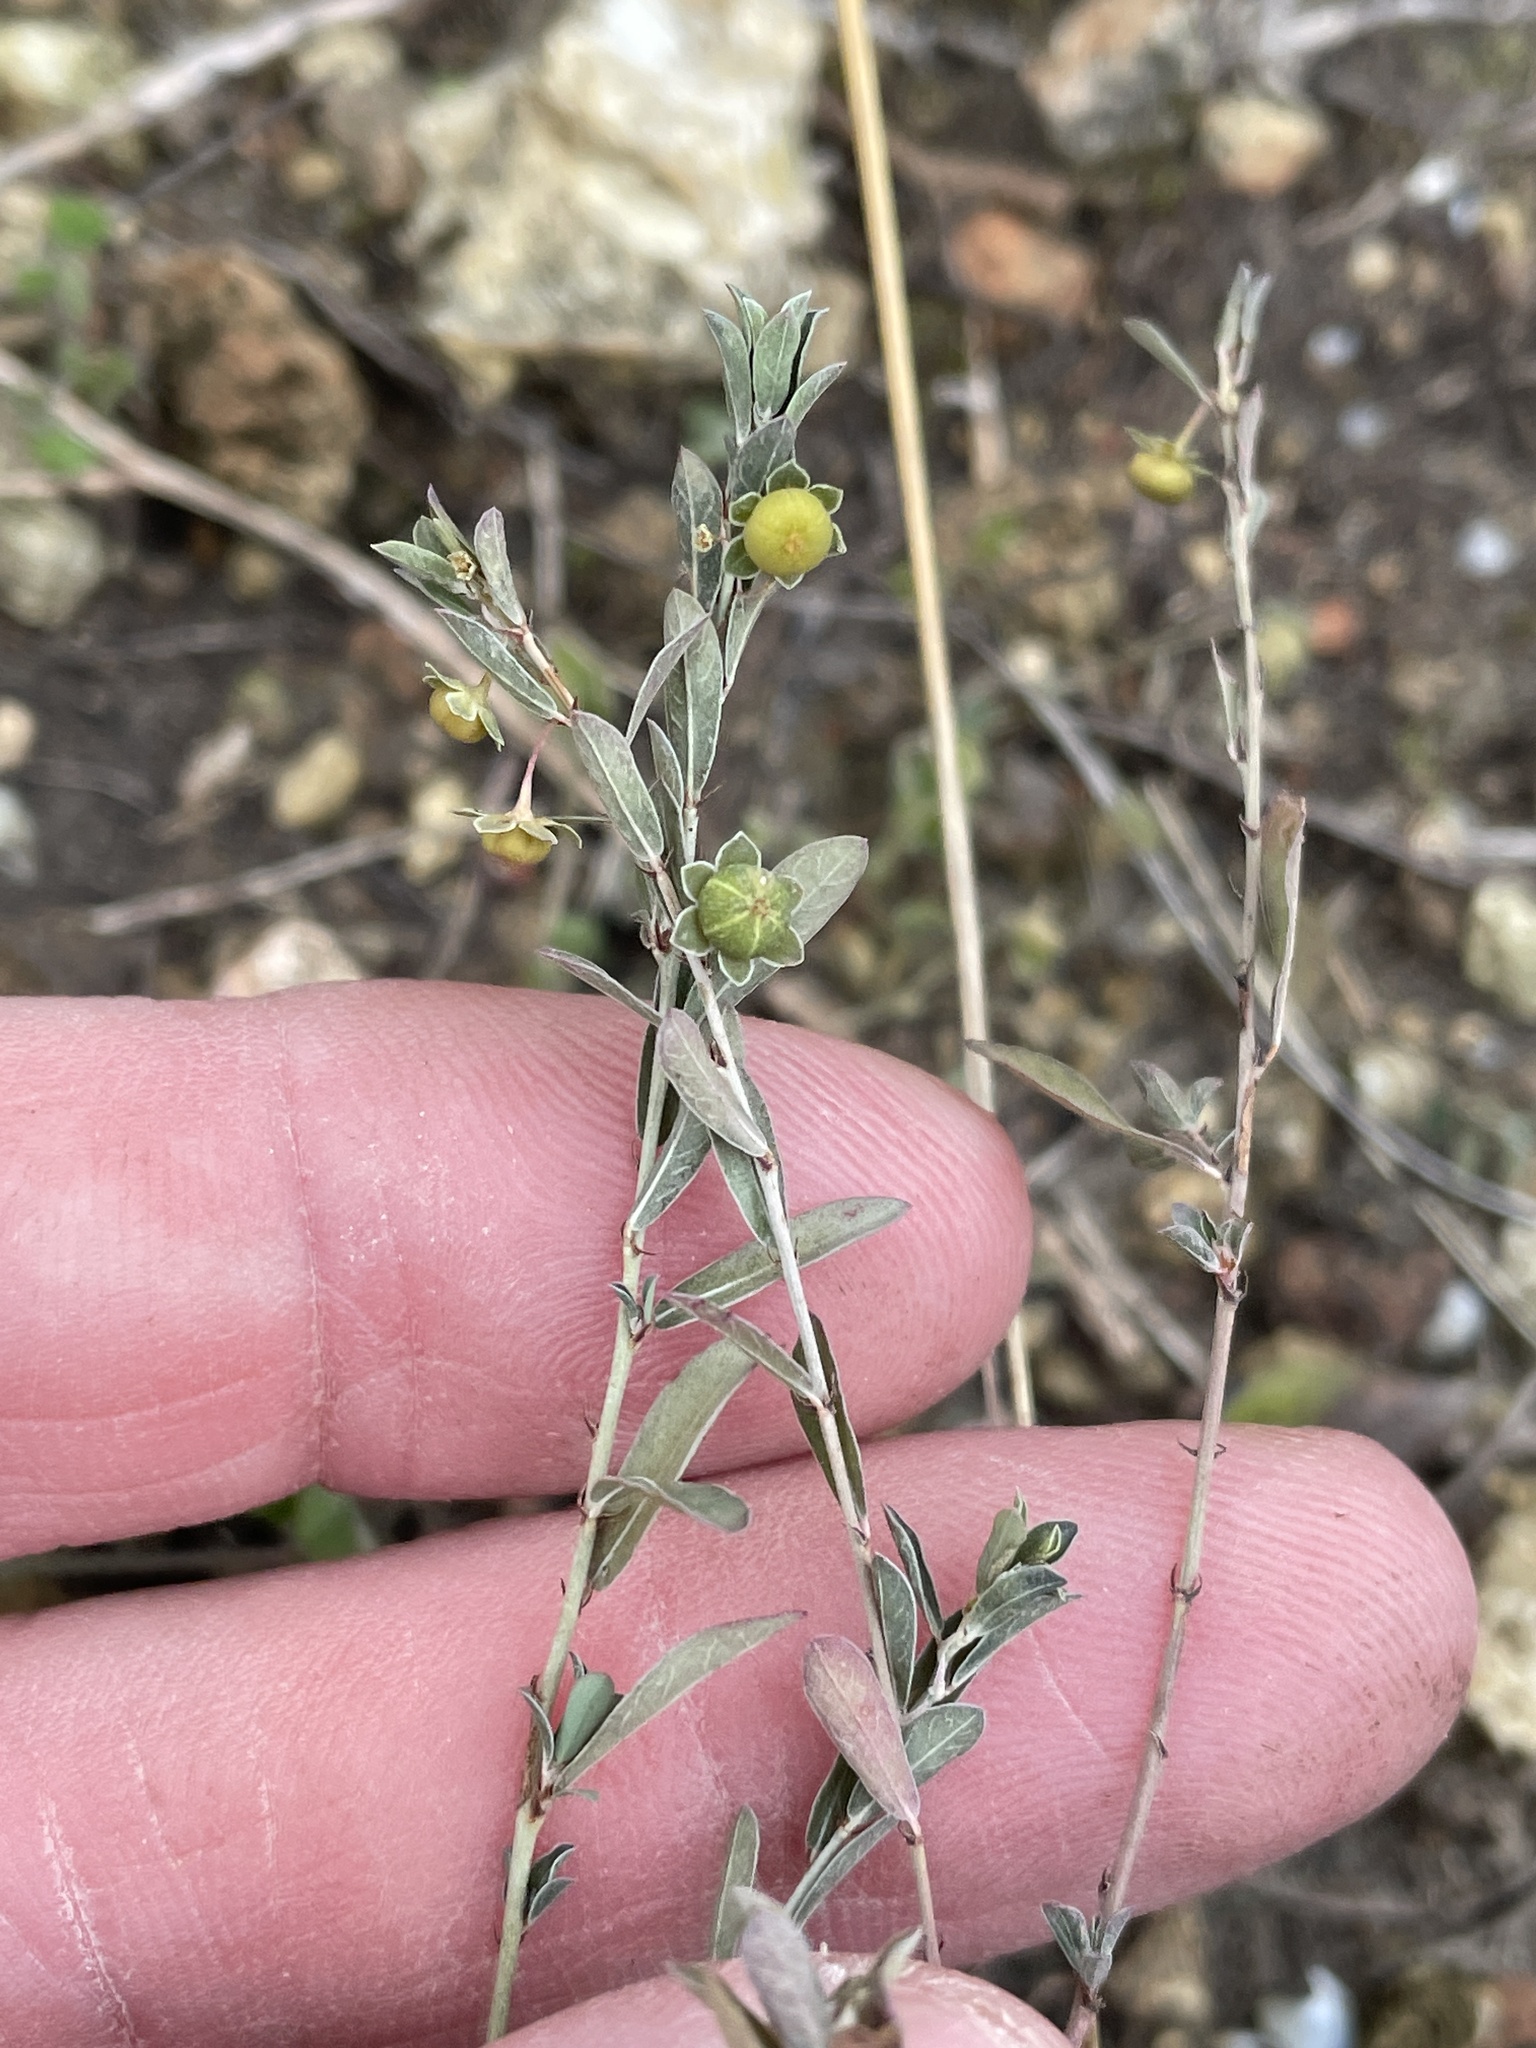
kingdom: Plantae
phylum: Tracheophyta
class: Magnoliopsida
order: Malpighiales
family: Phyllanthaceae
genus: Phyllanthus
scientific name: Phyllanthus polygonoides
